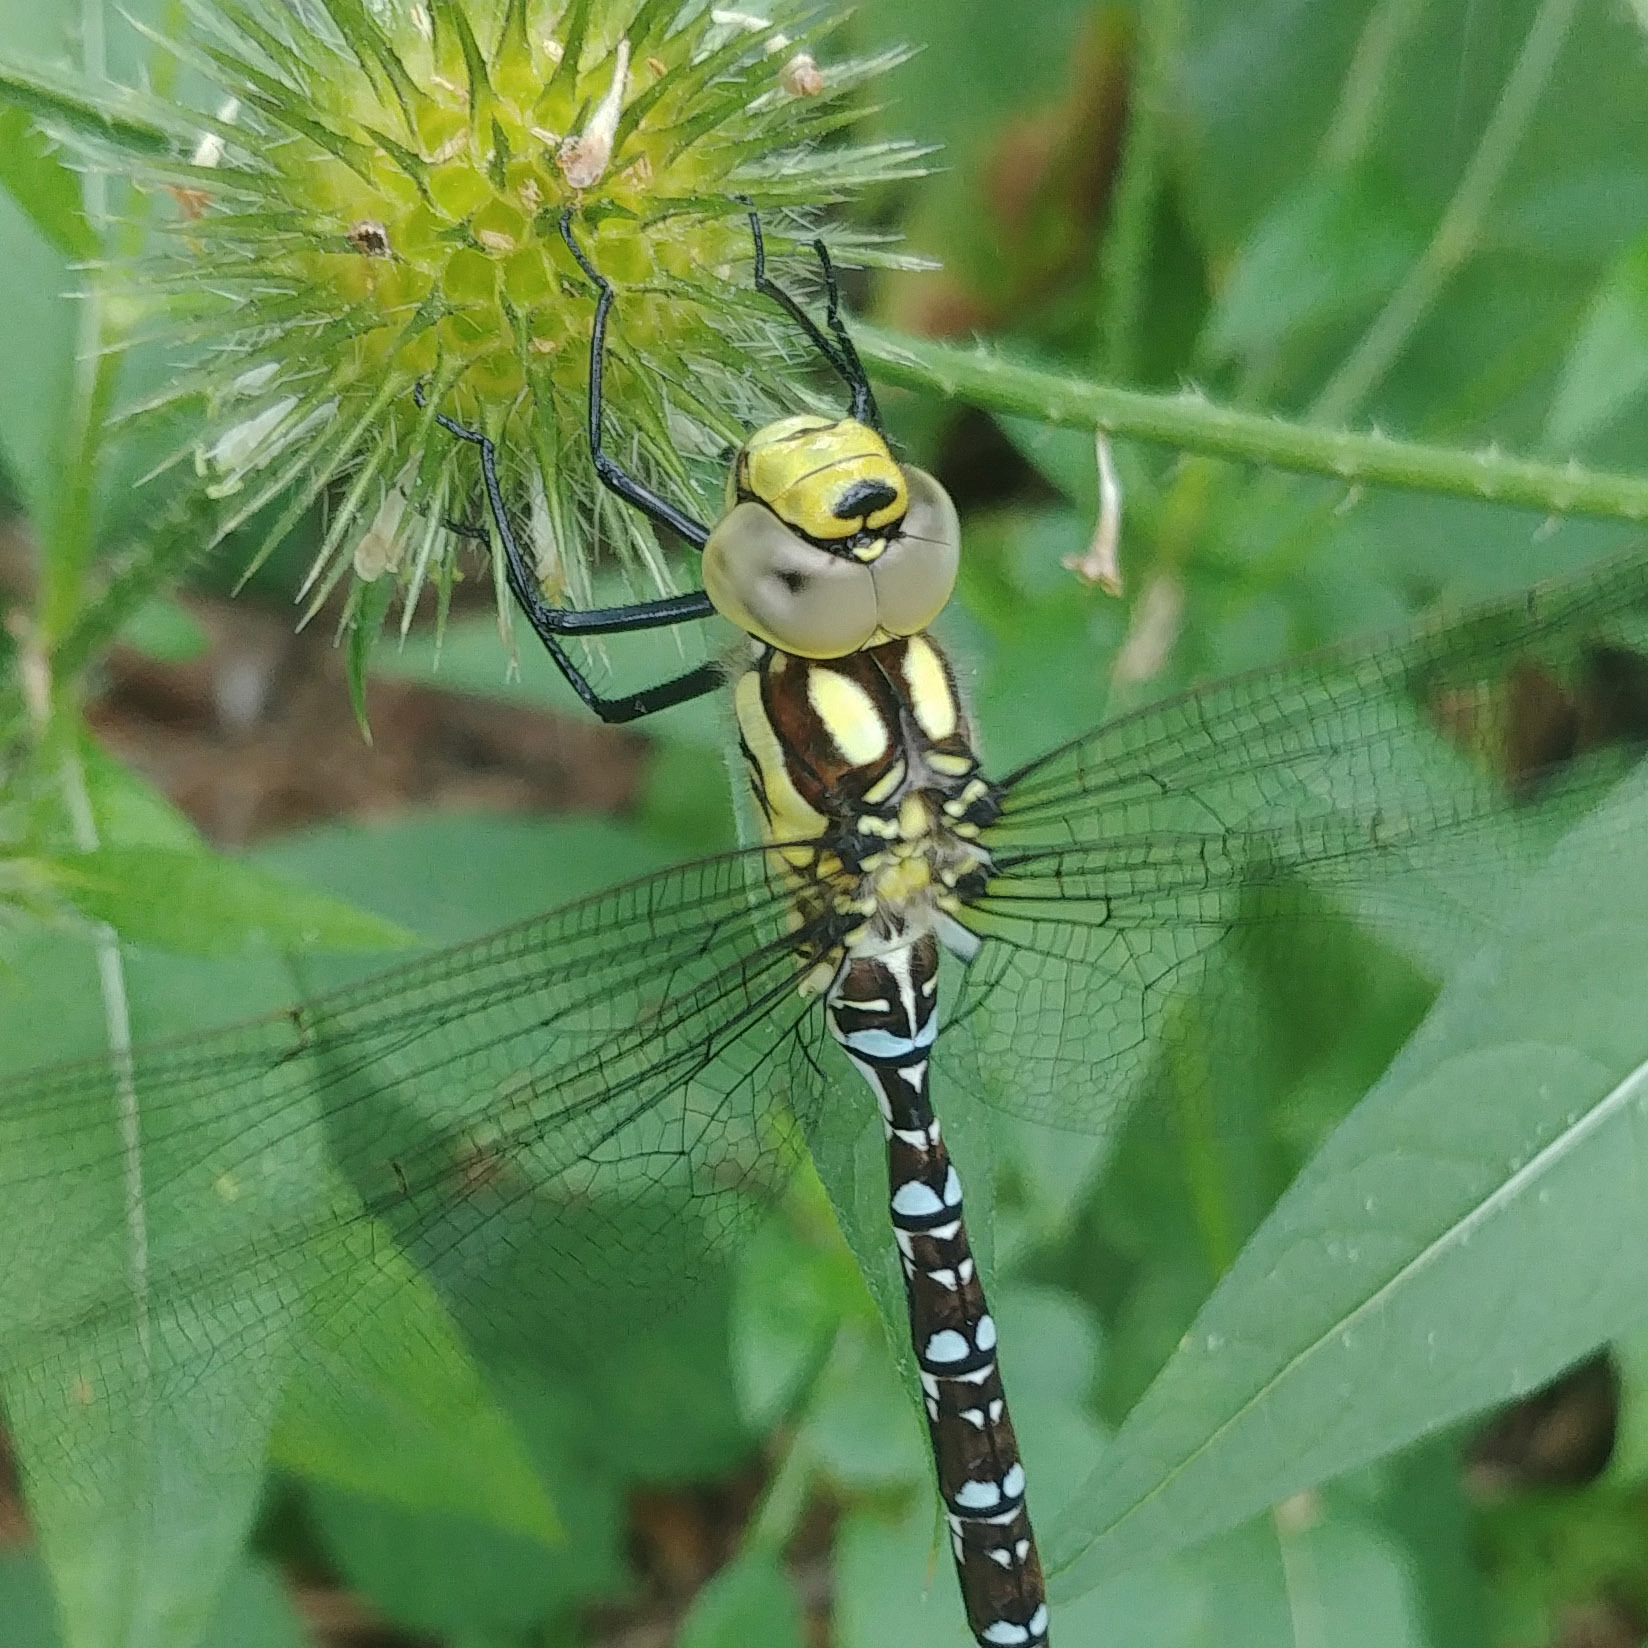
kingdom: Animalia
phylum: Arthropoda
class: Insecta
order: Odonata
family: Aeshnidae
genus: Aeshna
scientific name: Aeshna cyanea
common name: Southern hawker
